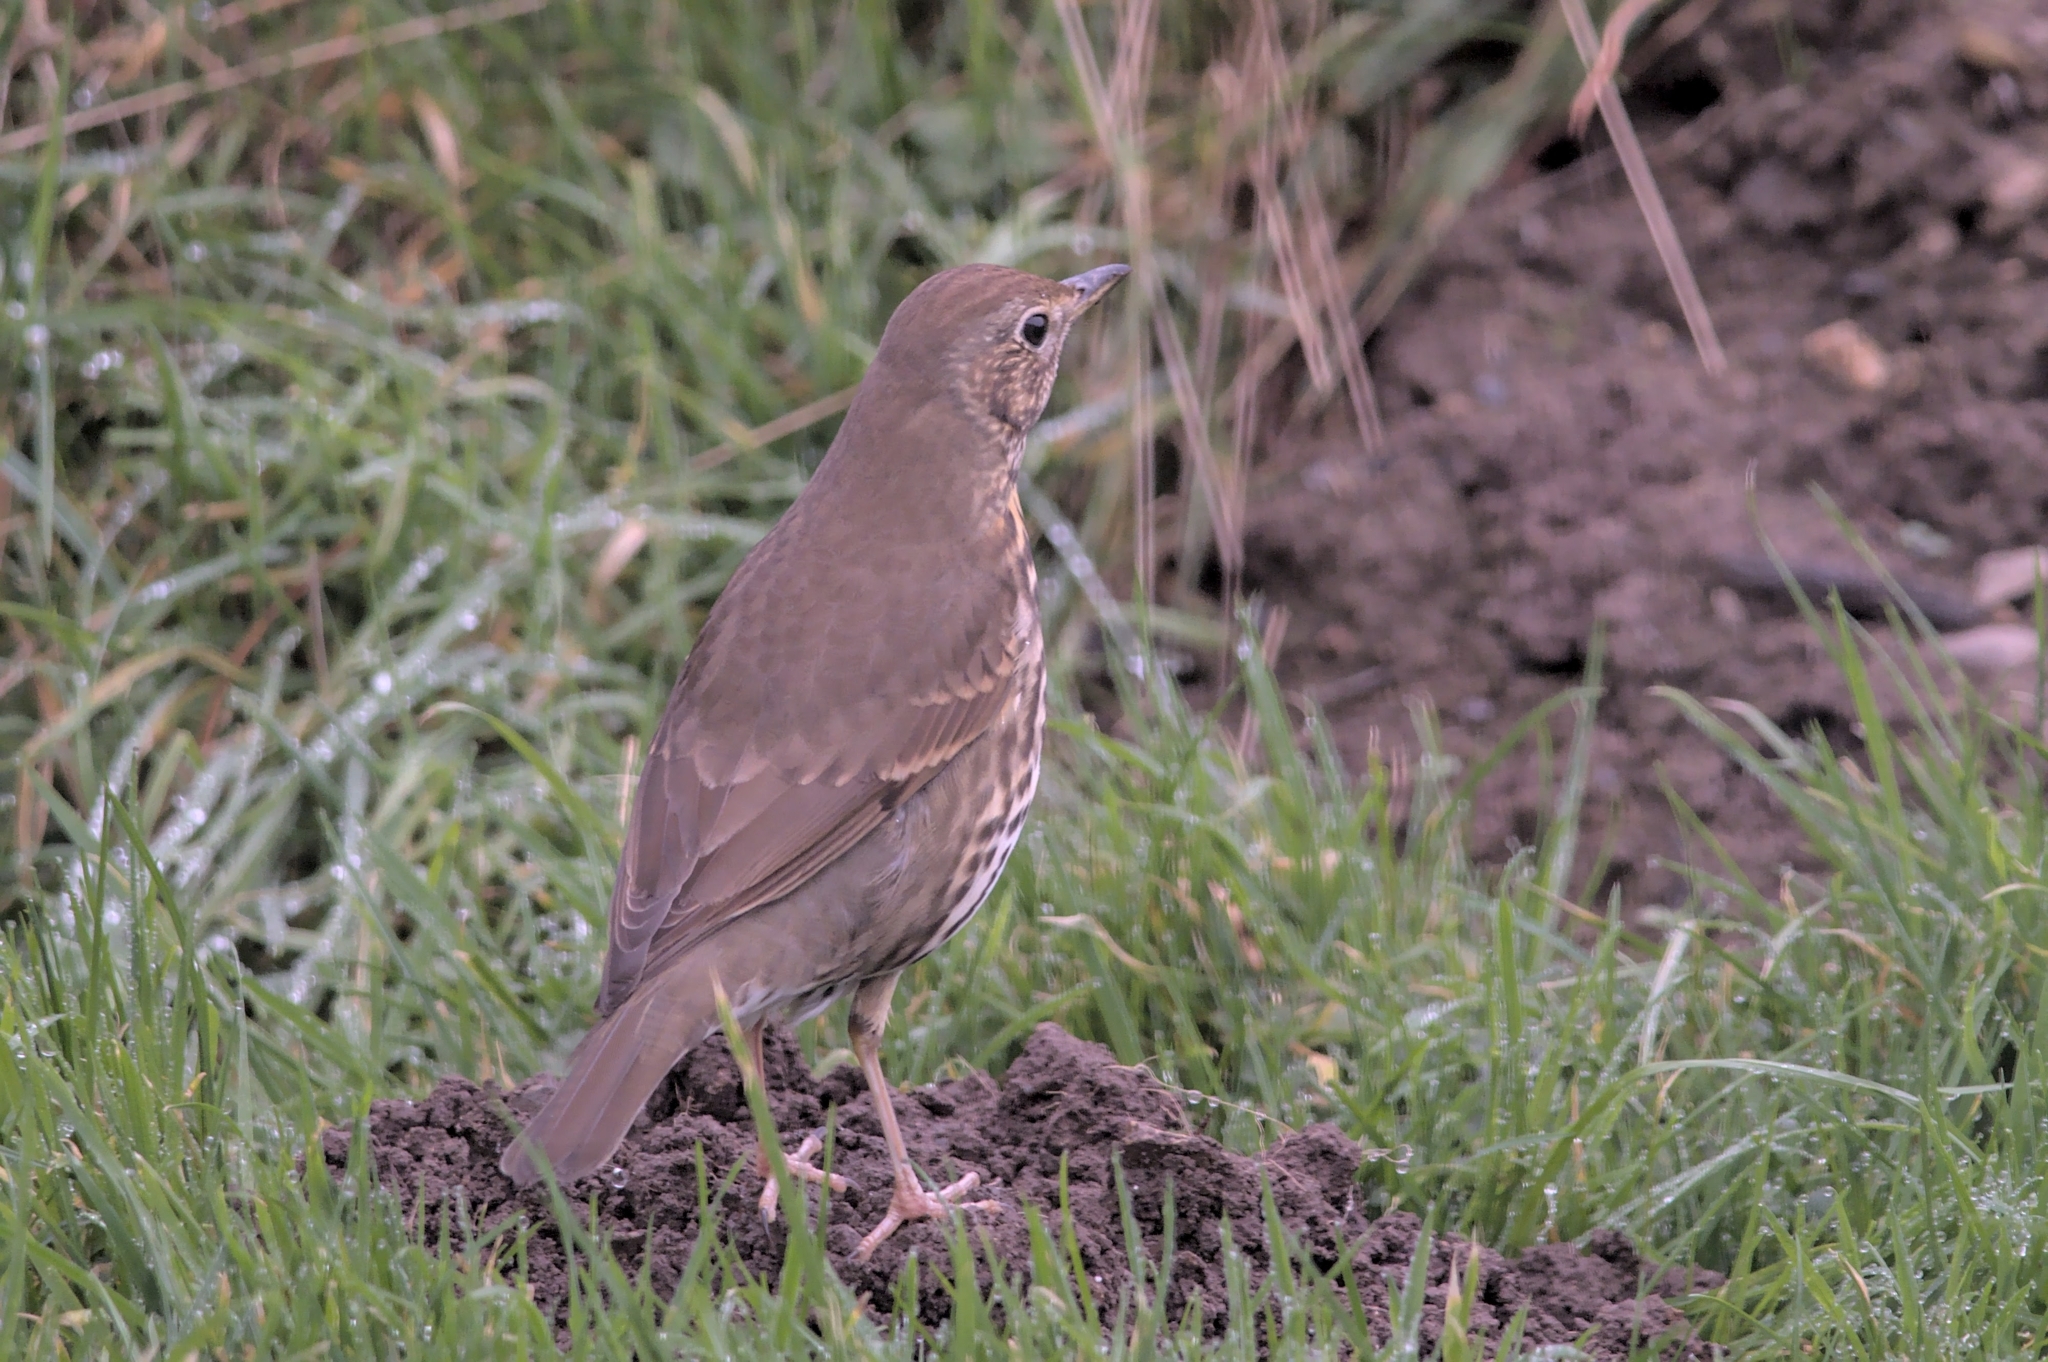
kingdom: Animalia
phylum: Chordata
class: Aves
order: Passeriformes
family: Turdidae
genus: Turdus
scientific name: Turdus philomelos
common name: Song thrush
